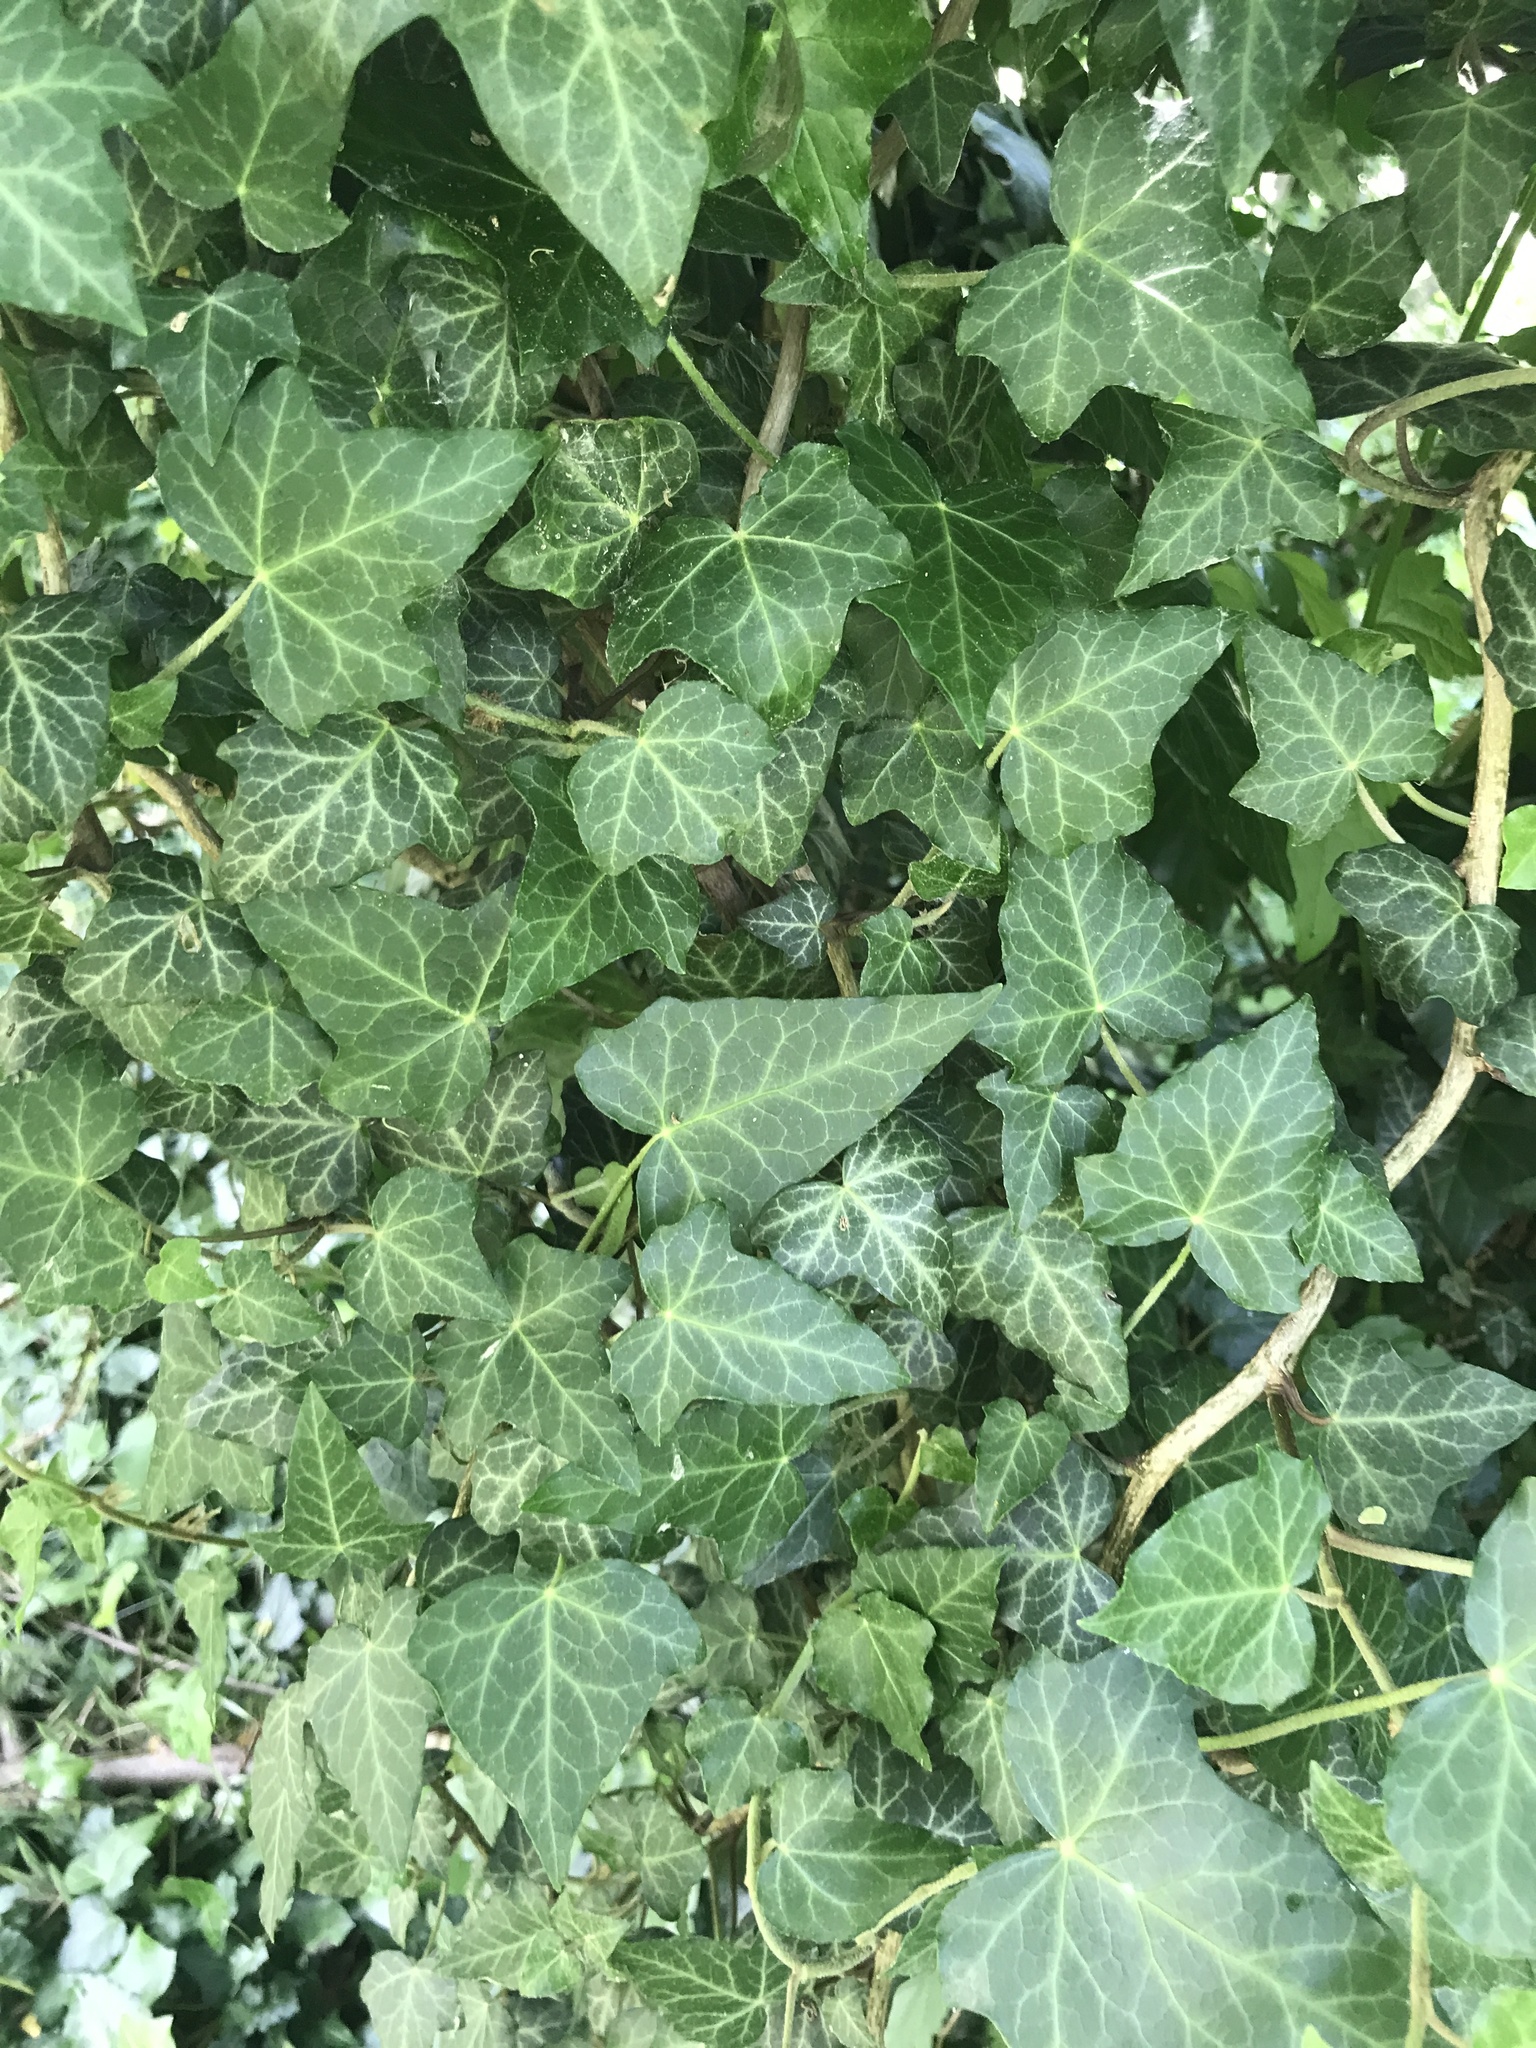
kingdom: Plantae
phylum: Tracheophyta
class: Magnoliopsida
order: Apiales
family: Araliaceae
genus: Hedera
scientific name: Hedera helix
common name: Ivy
